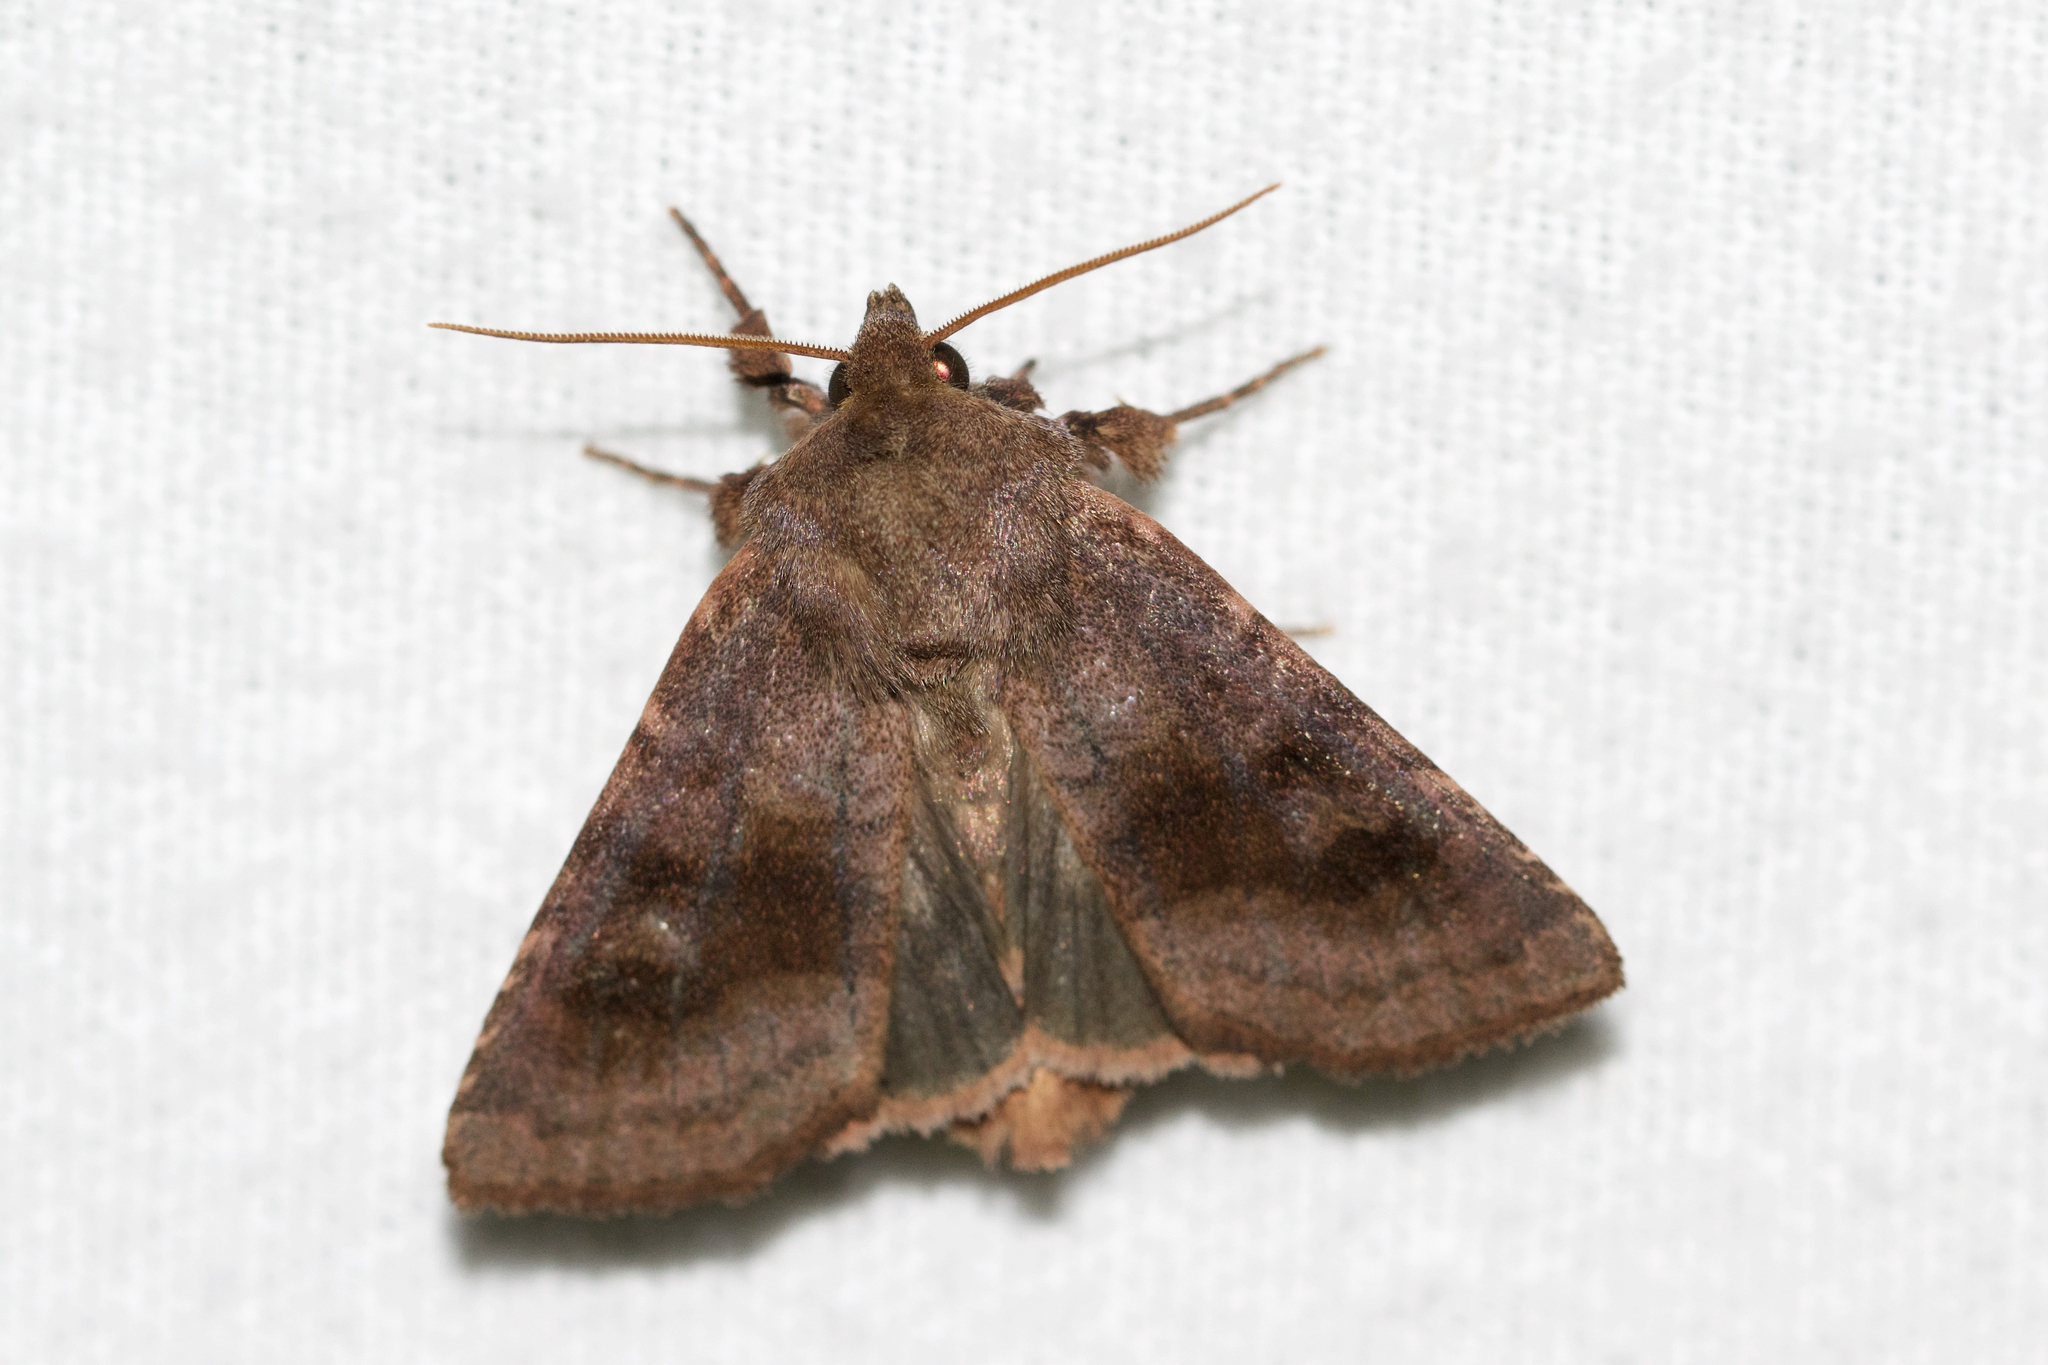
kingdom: Animalia
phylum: Arthropoda
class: Insecta
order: Lepidoptera
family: Noctuidae
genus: Nephelodes
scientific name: Nephelodes minians
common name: Bronzed cutworm
